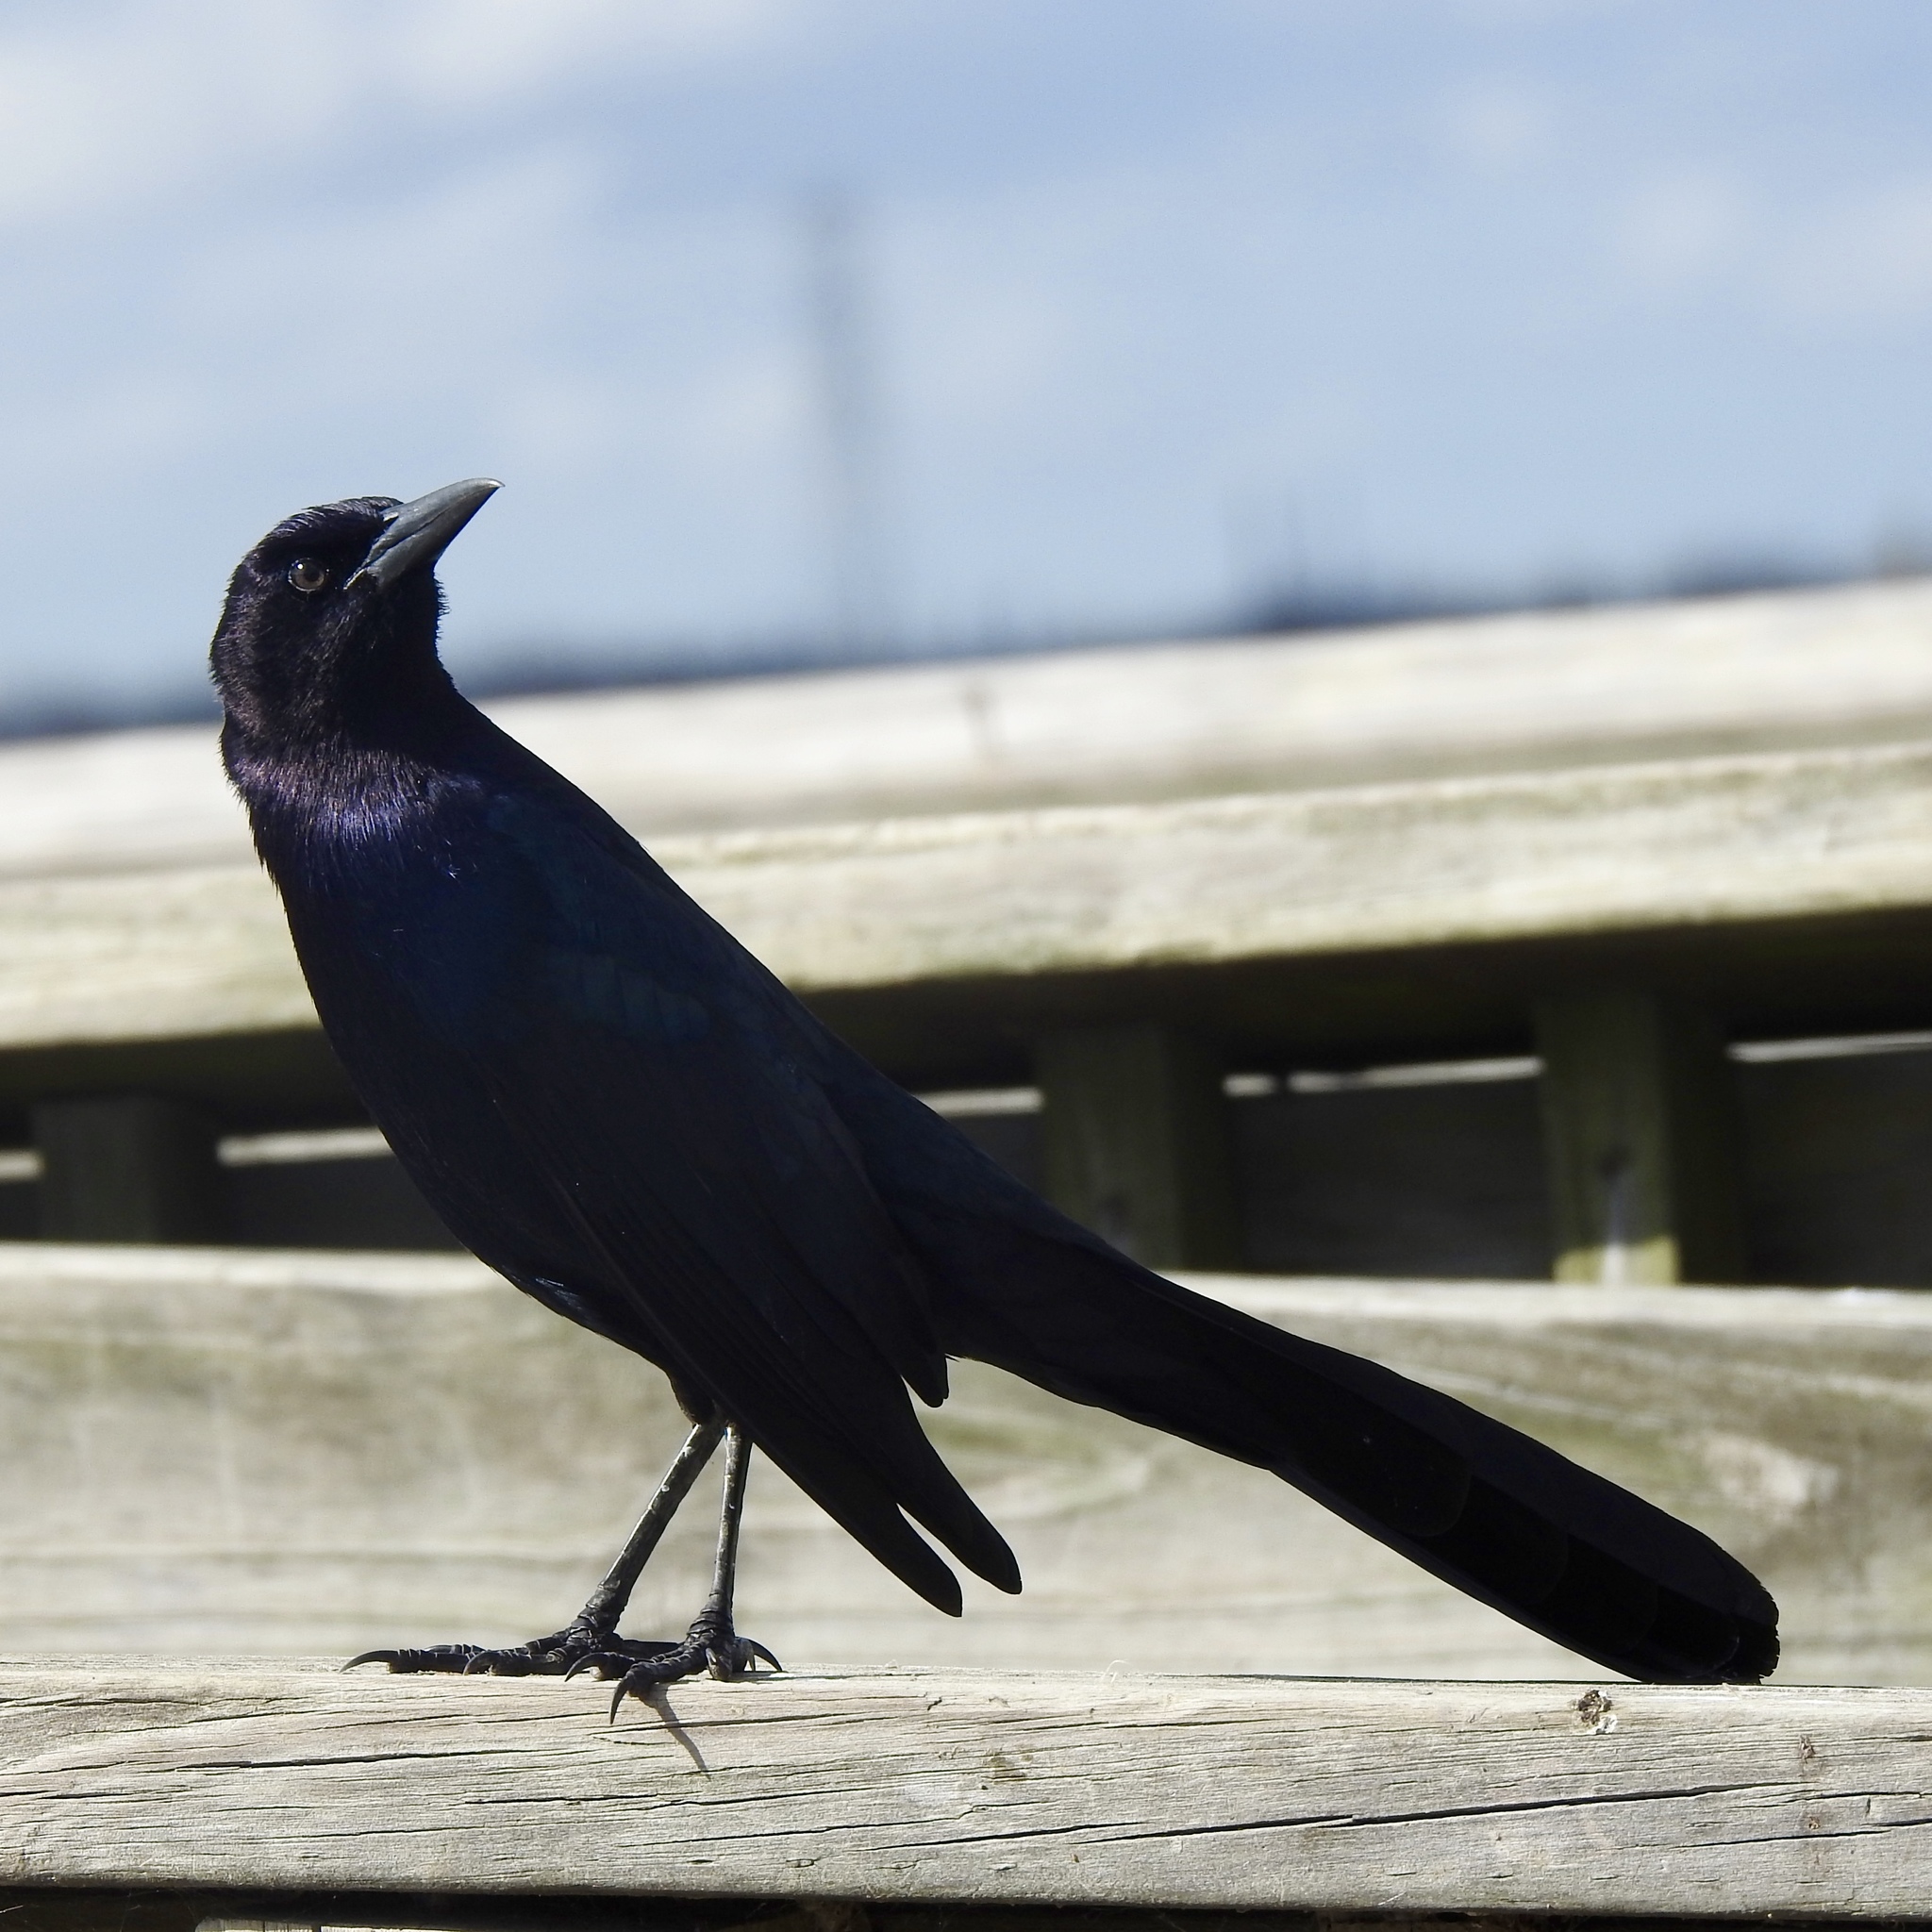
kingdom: Animalia
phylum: Chordata
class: Aves
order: Passeriformes
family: Icteridae
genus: Quiscalus
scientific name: Quiscalus major
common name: Boat-tailed grackle
